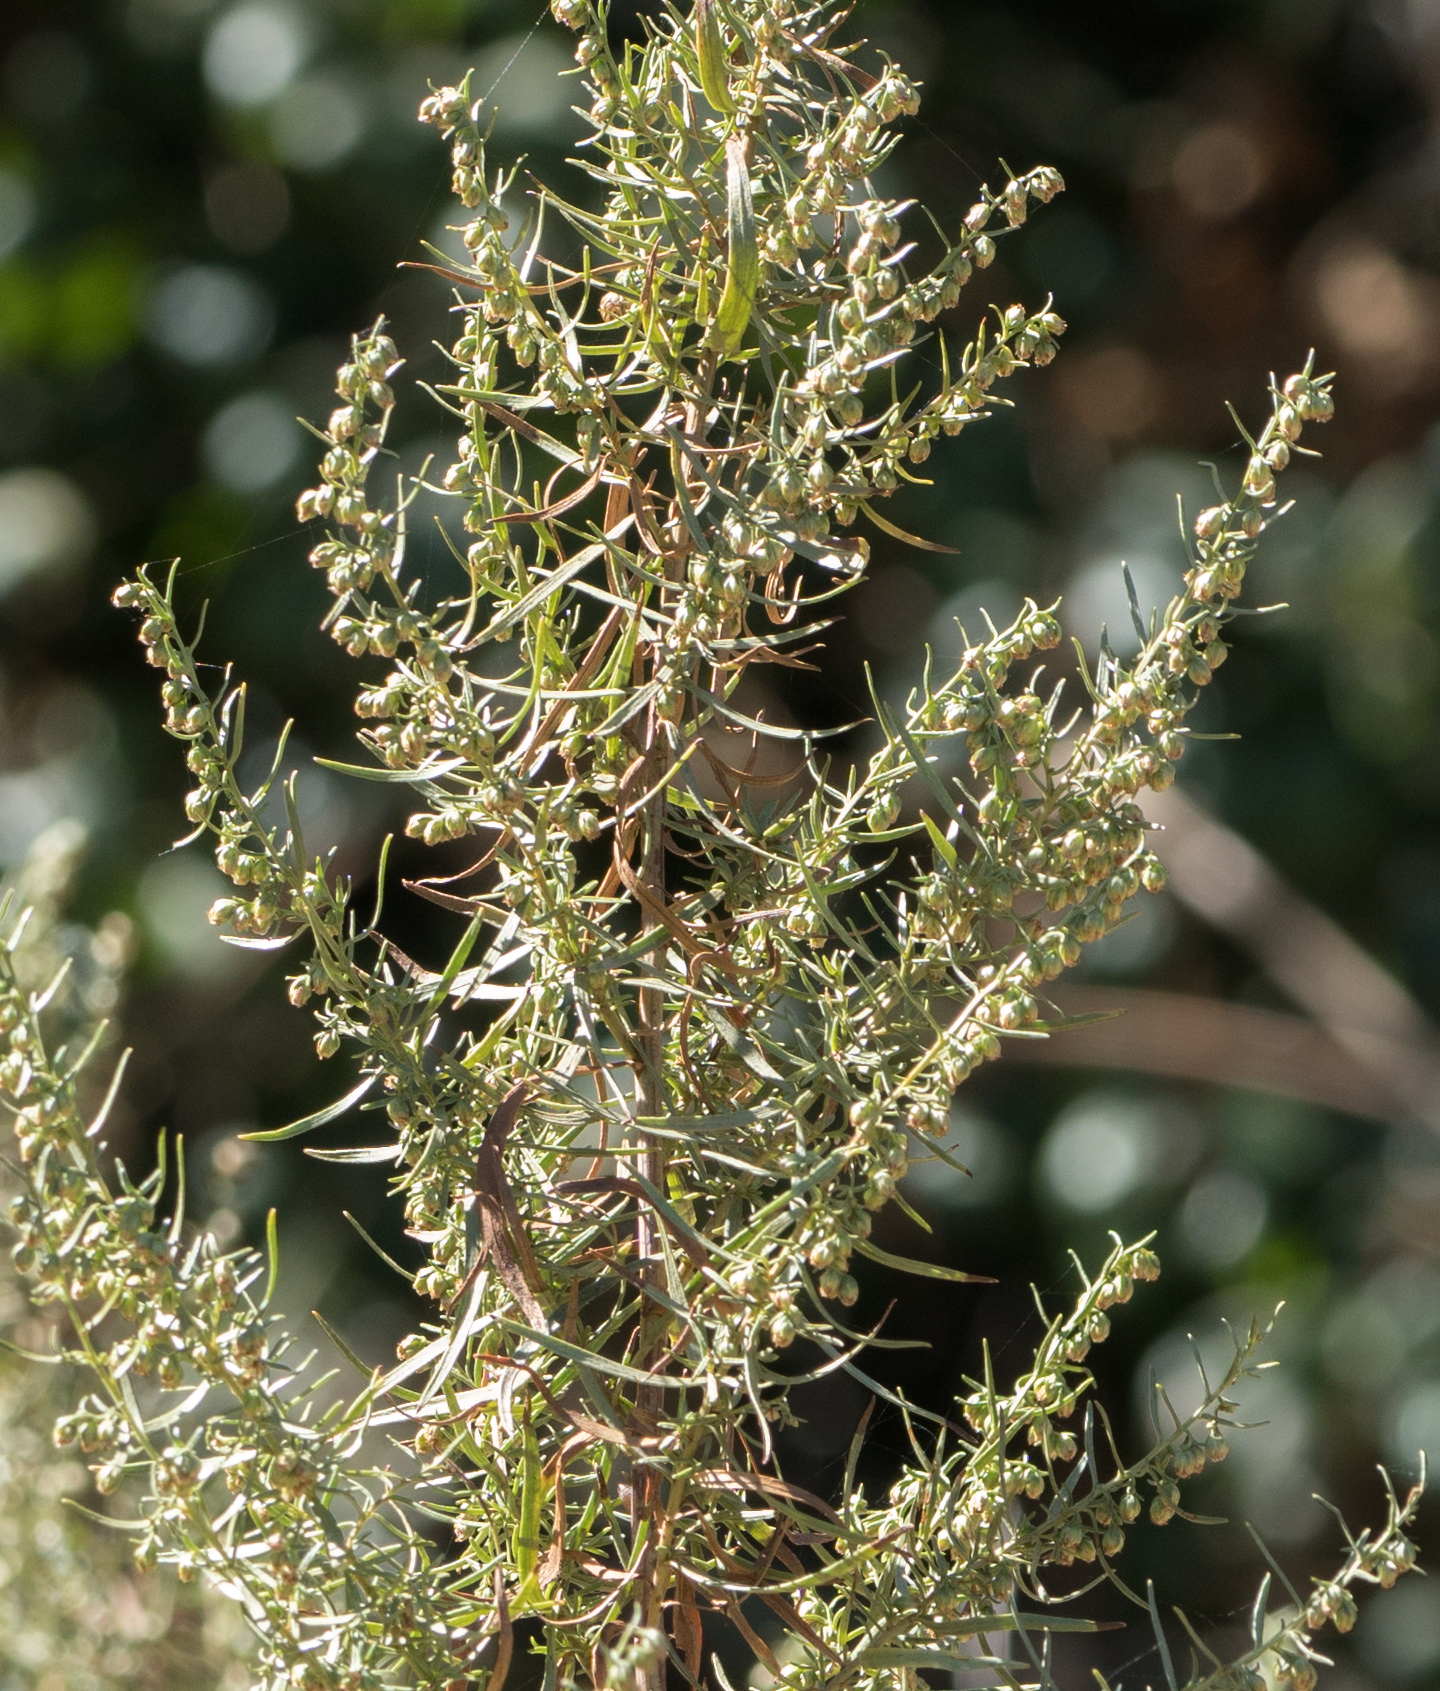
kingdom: Plantae
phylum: Tracheophyta
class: Magnoliopsida
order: Asterales
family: Asteraceae
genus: Artemisia
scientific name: Artemisia dracunculus
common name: Tarragon
